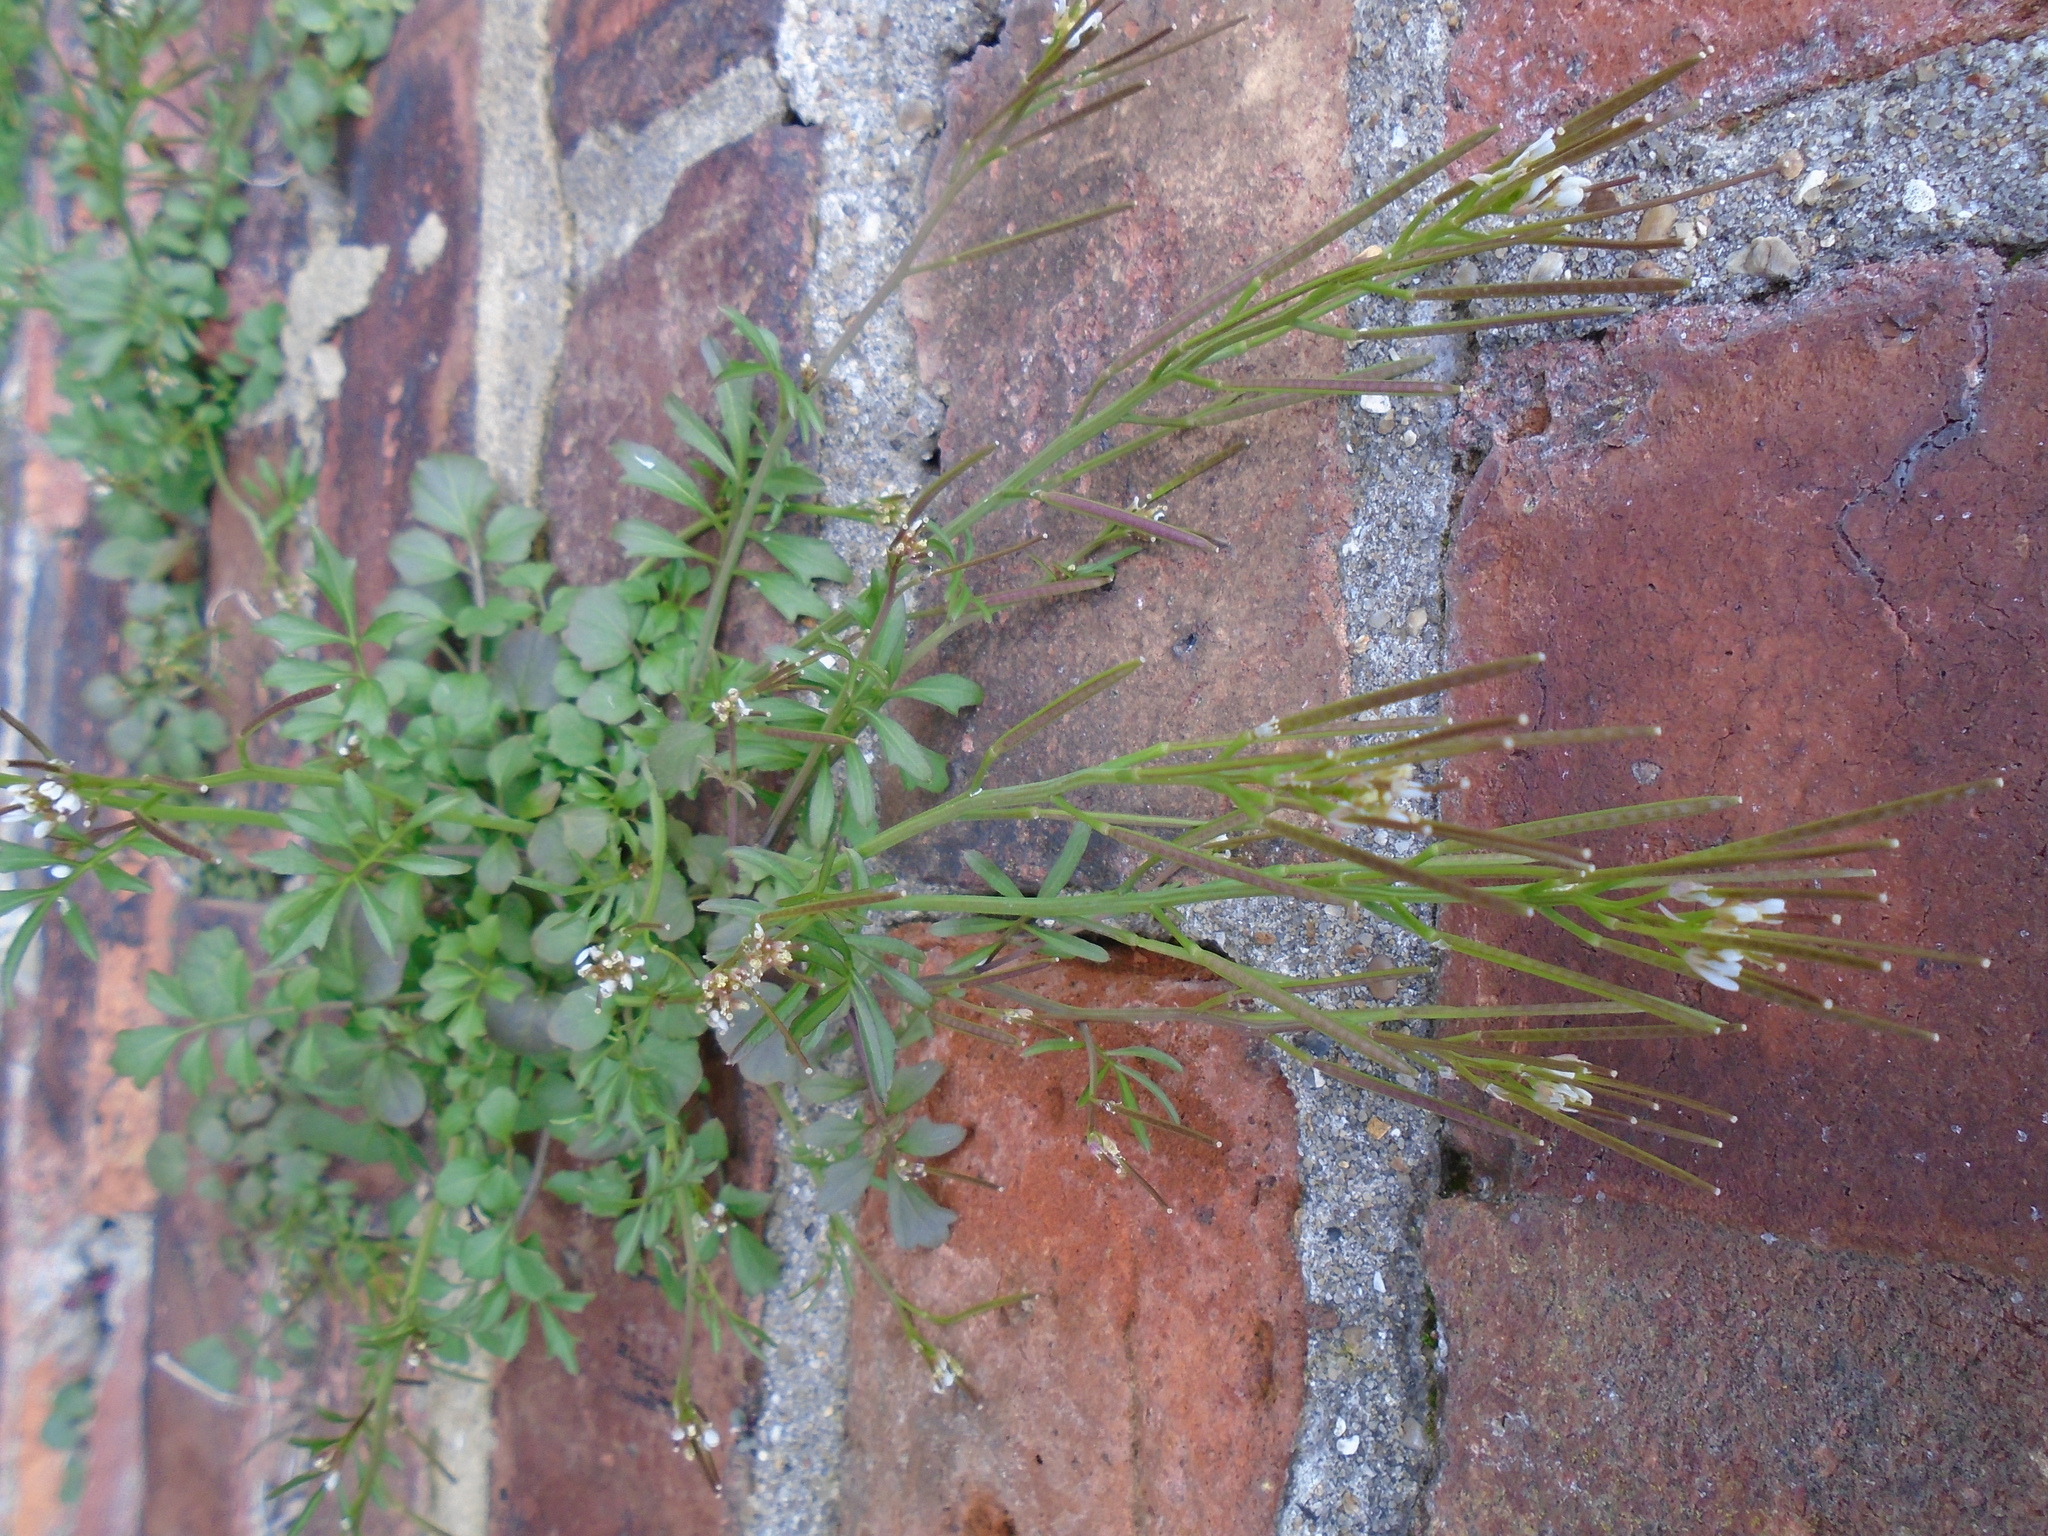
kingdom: Plantae
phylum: Tracheophyta
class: Magnoliopsida
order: Brassicales
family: Brassicaceae
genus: Cardamine
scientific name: Cardamine hirsuta
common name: Hairy bittercress
